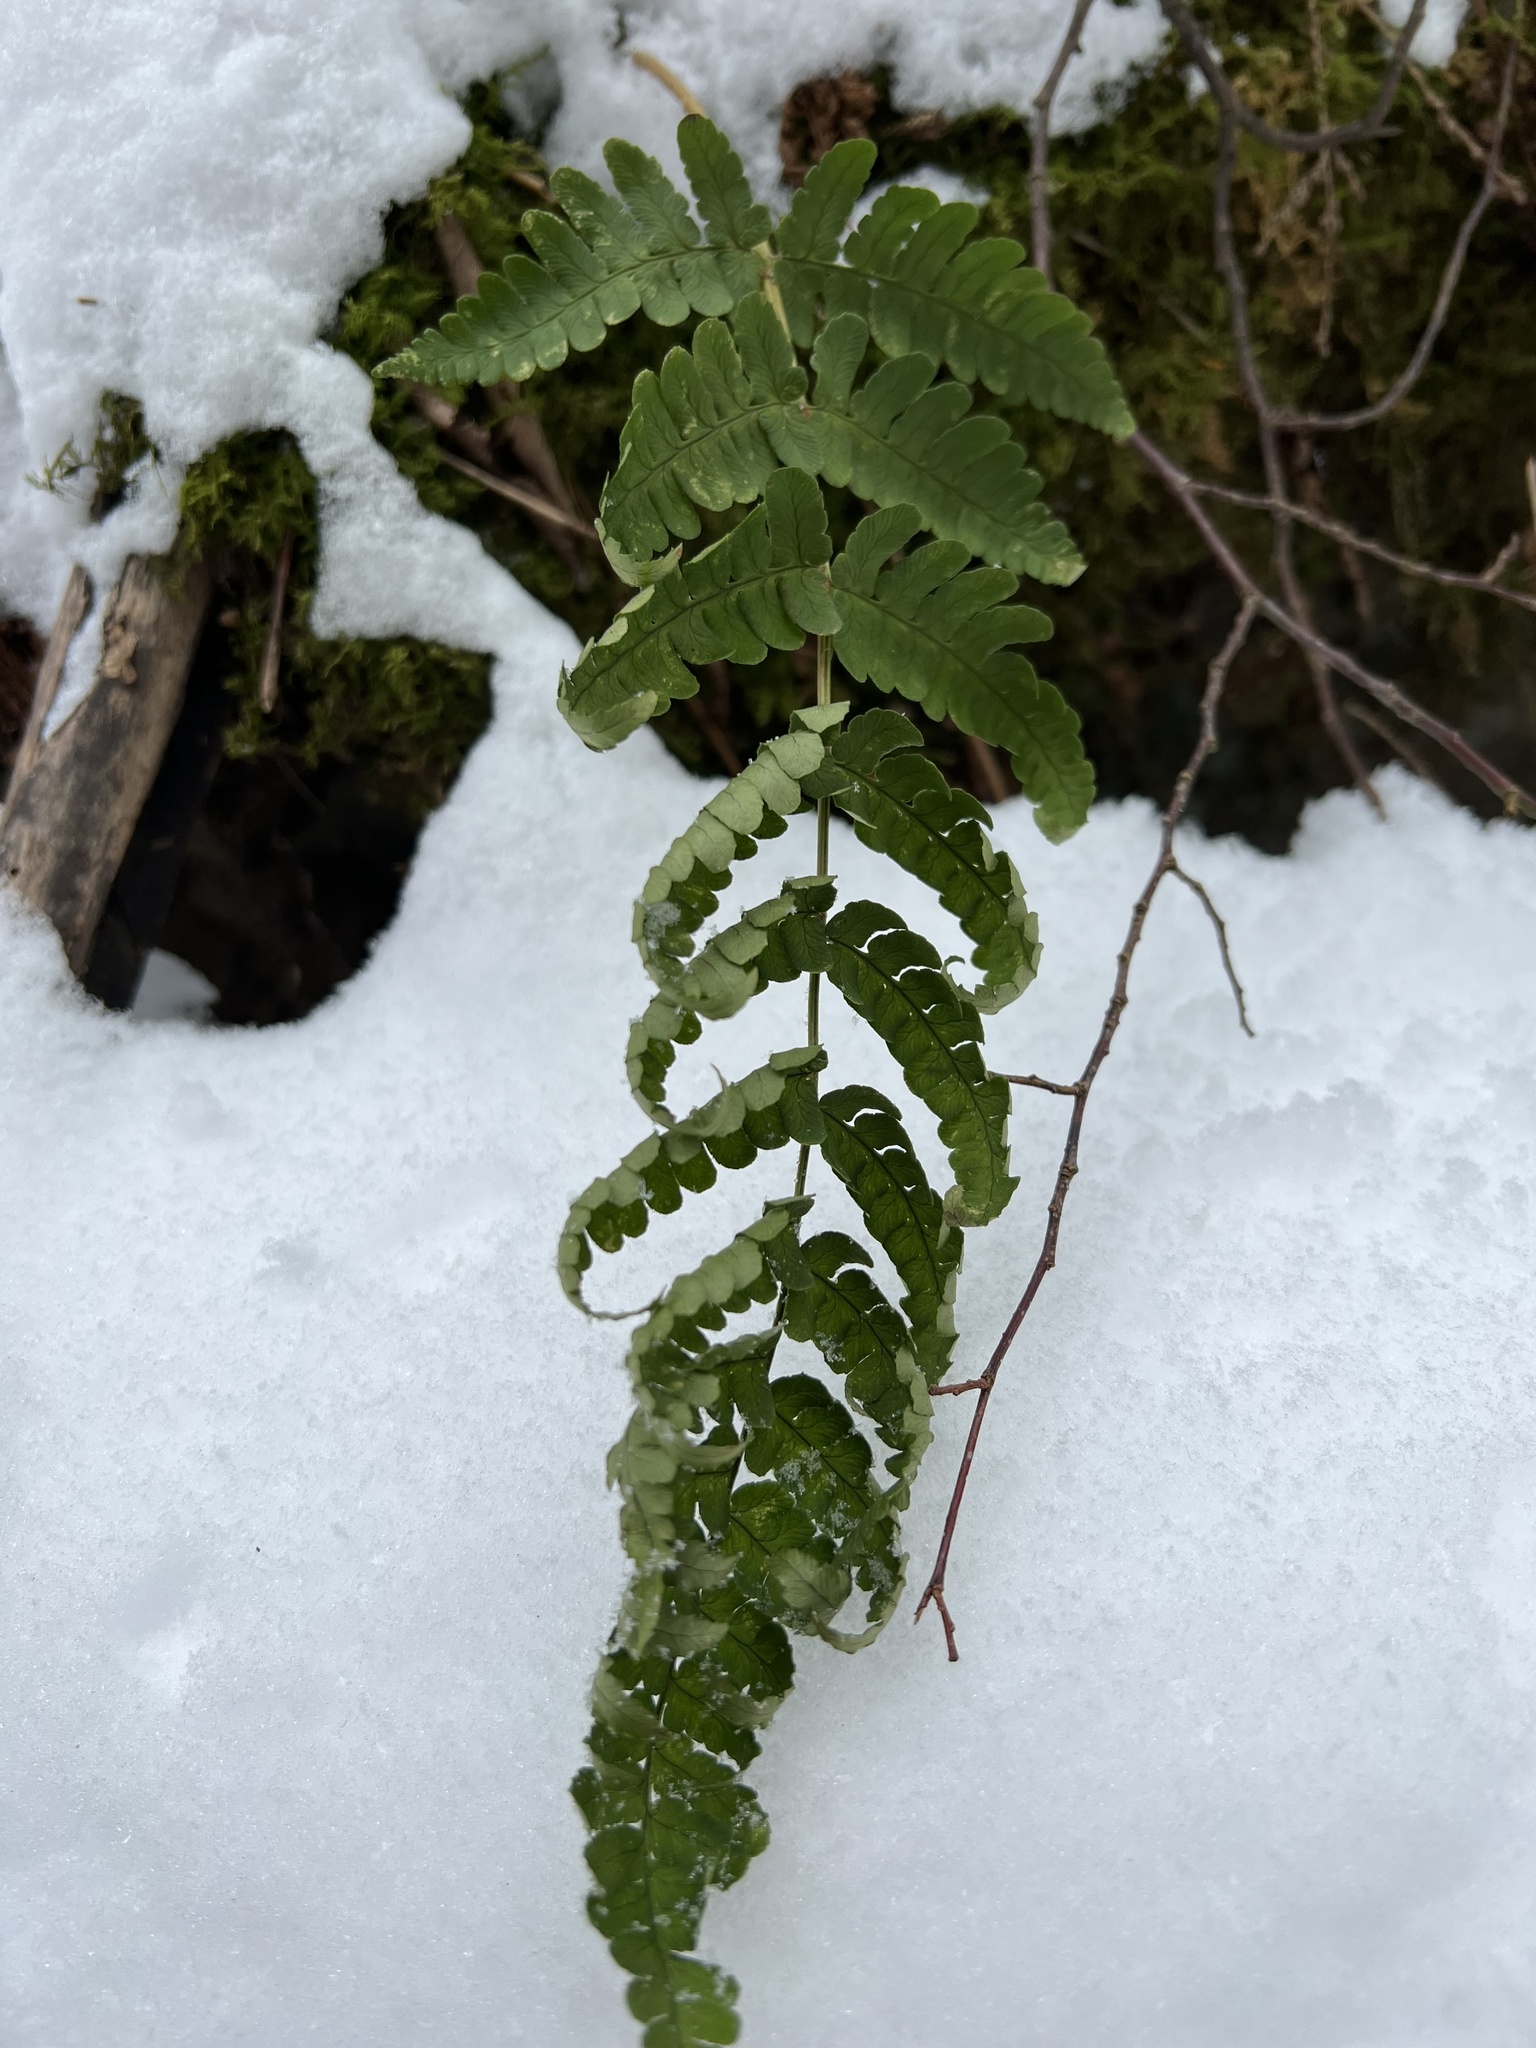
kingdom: Plantae
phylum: Tracheophyta
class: Polypodiopsida
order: Polypodiales
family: Dryopteridaceae
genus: Dryopteris
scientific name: Dryopteris marginalis
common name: Marginal wood fern
